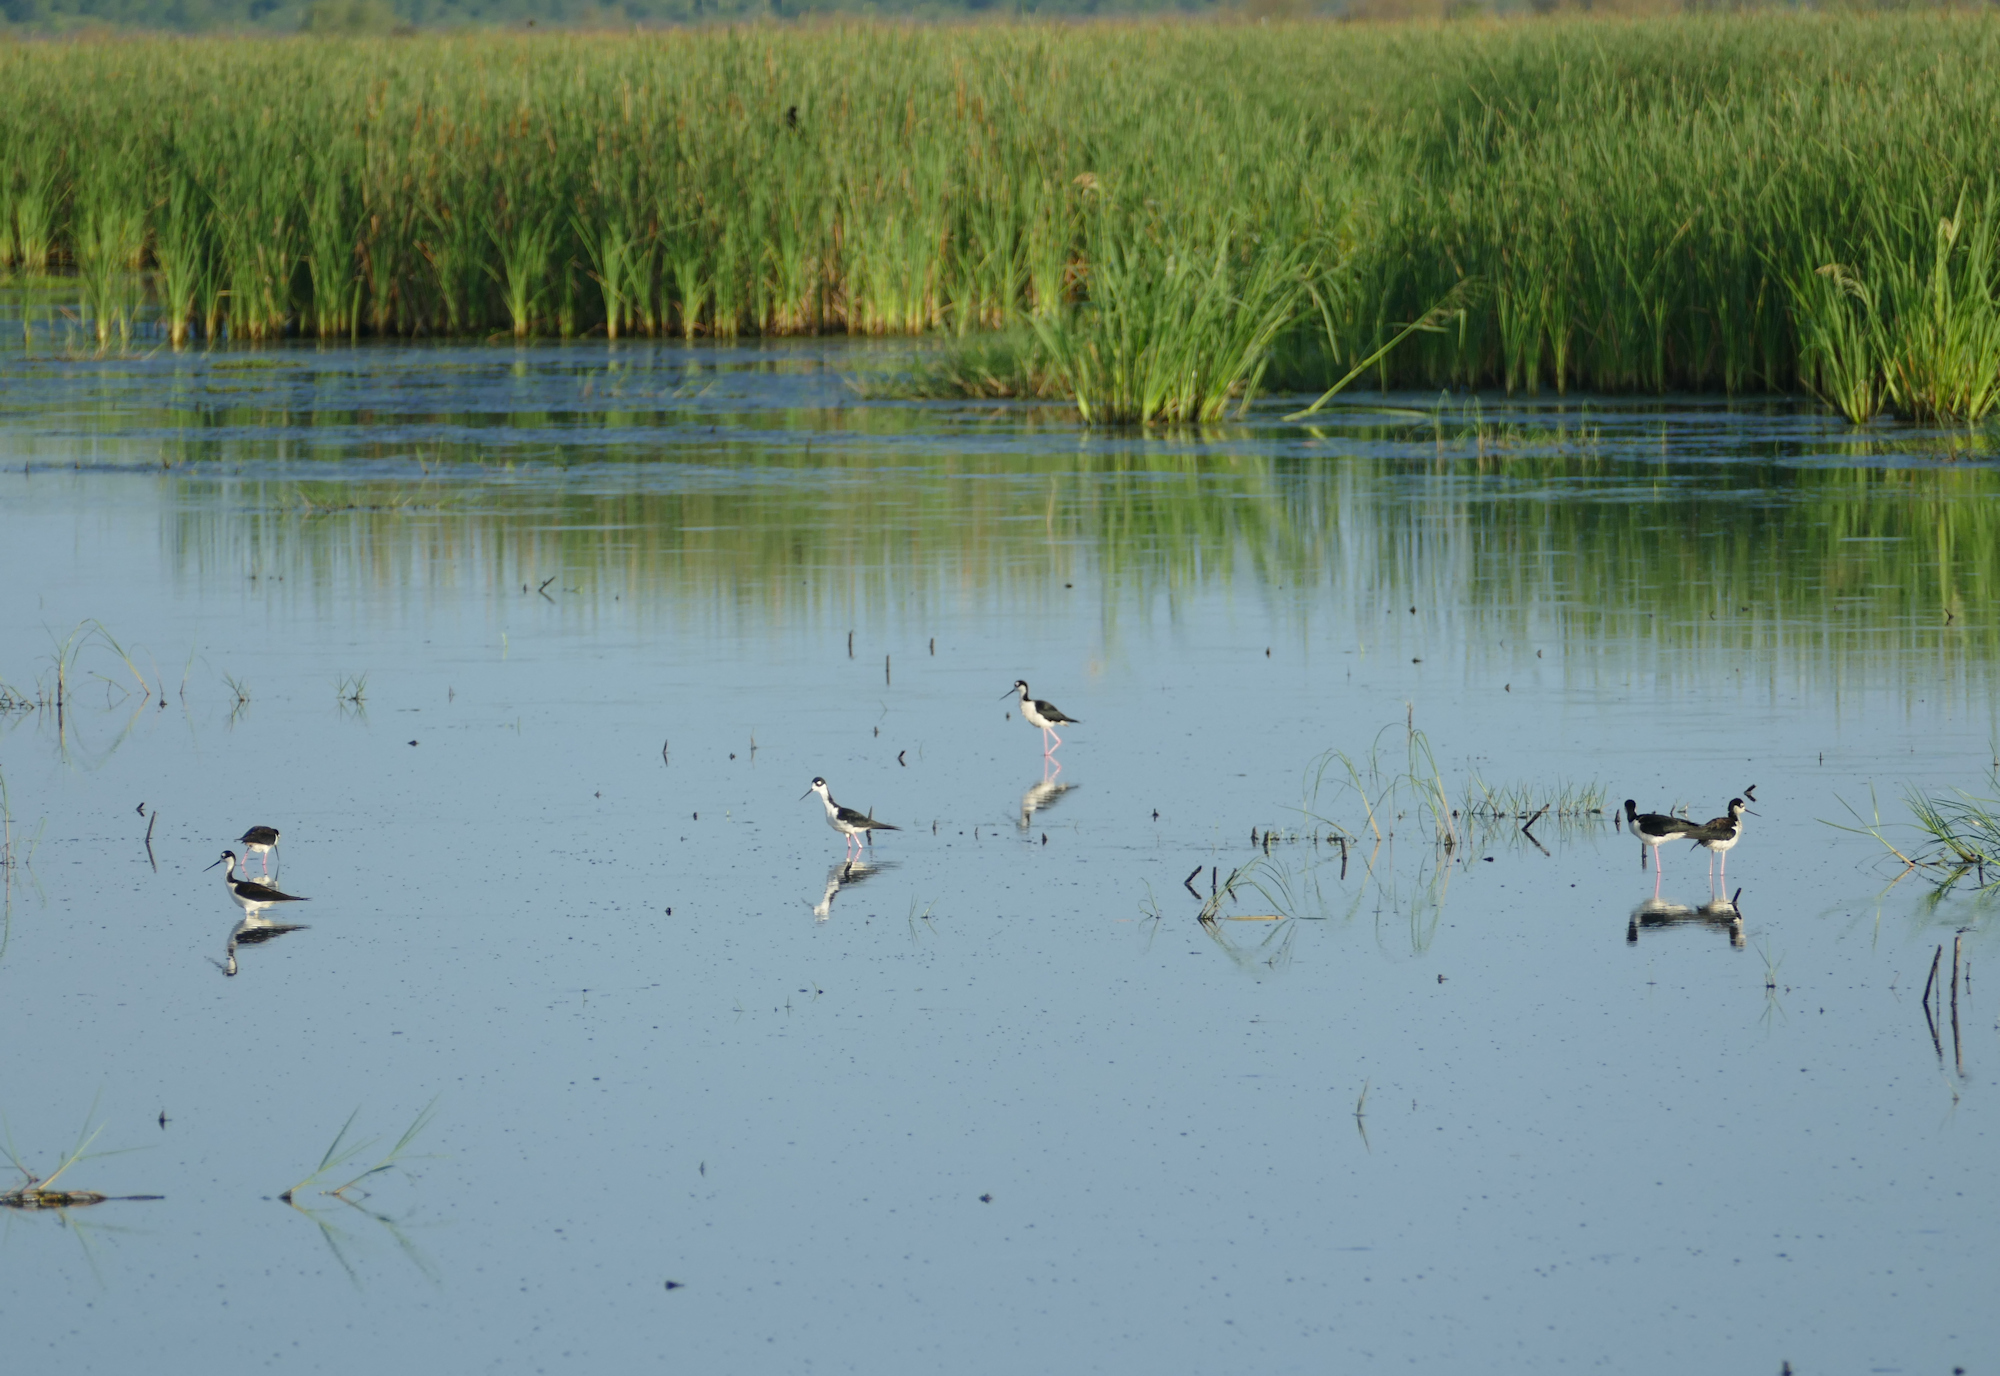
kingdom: Animalia
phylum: Chordata
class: Aves
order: Charadriiformes
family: Recurvirostridae
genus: Himantopus
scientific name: Himantopus mexicanus
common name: Black-necked stilt
